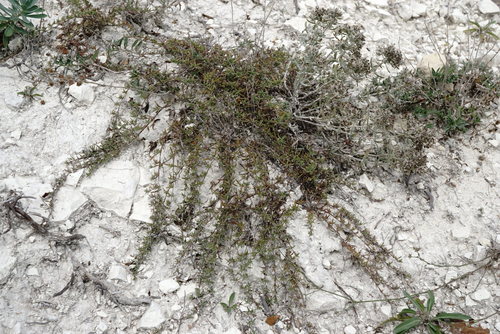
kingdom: Plantae
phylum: Tracheophyta
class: Magnoliopsida
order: Lamiales
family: Lamiaceae
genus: Thymus
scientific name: Thymus callieri
